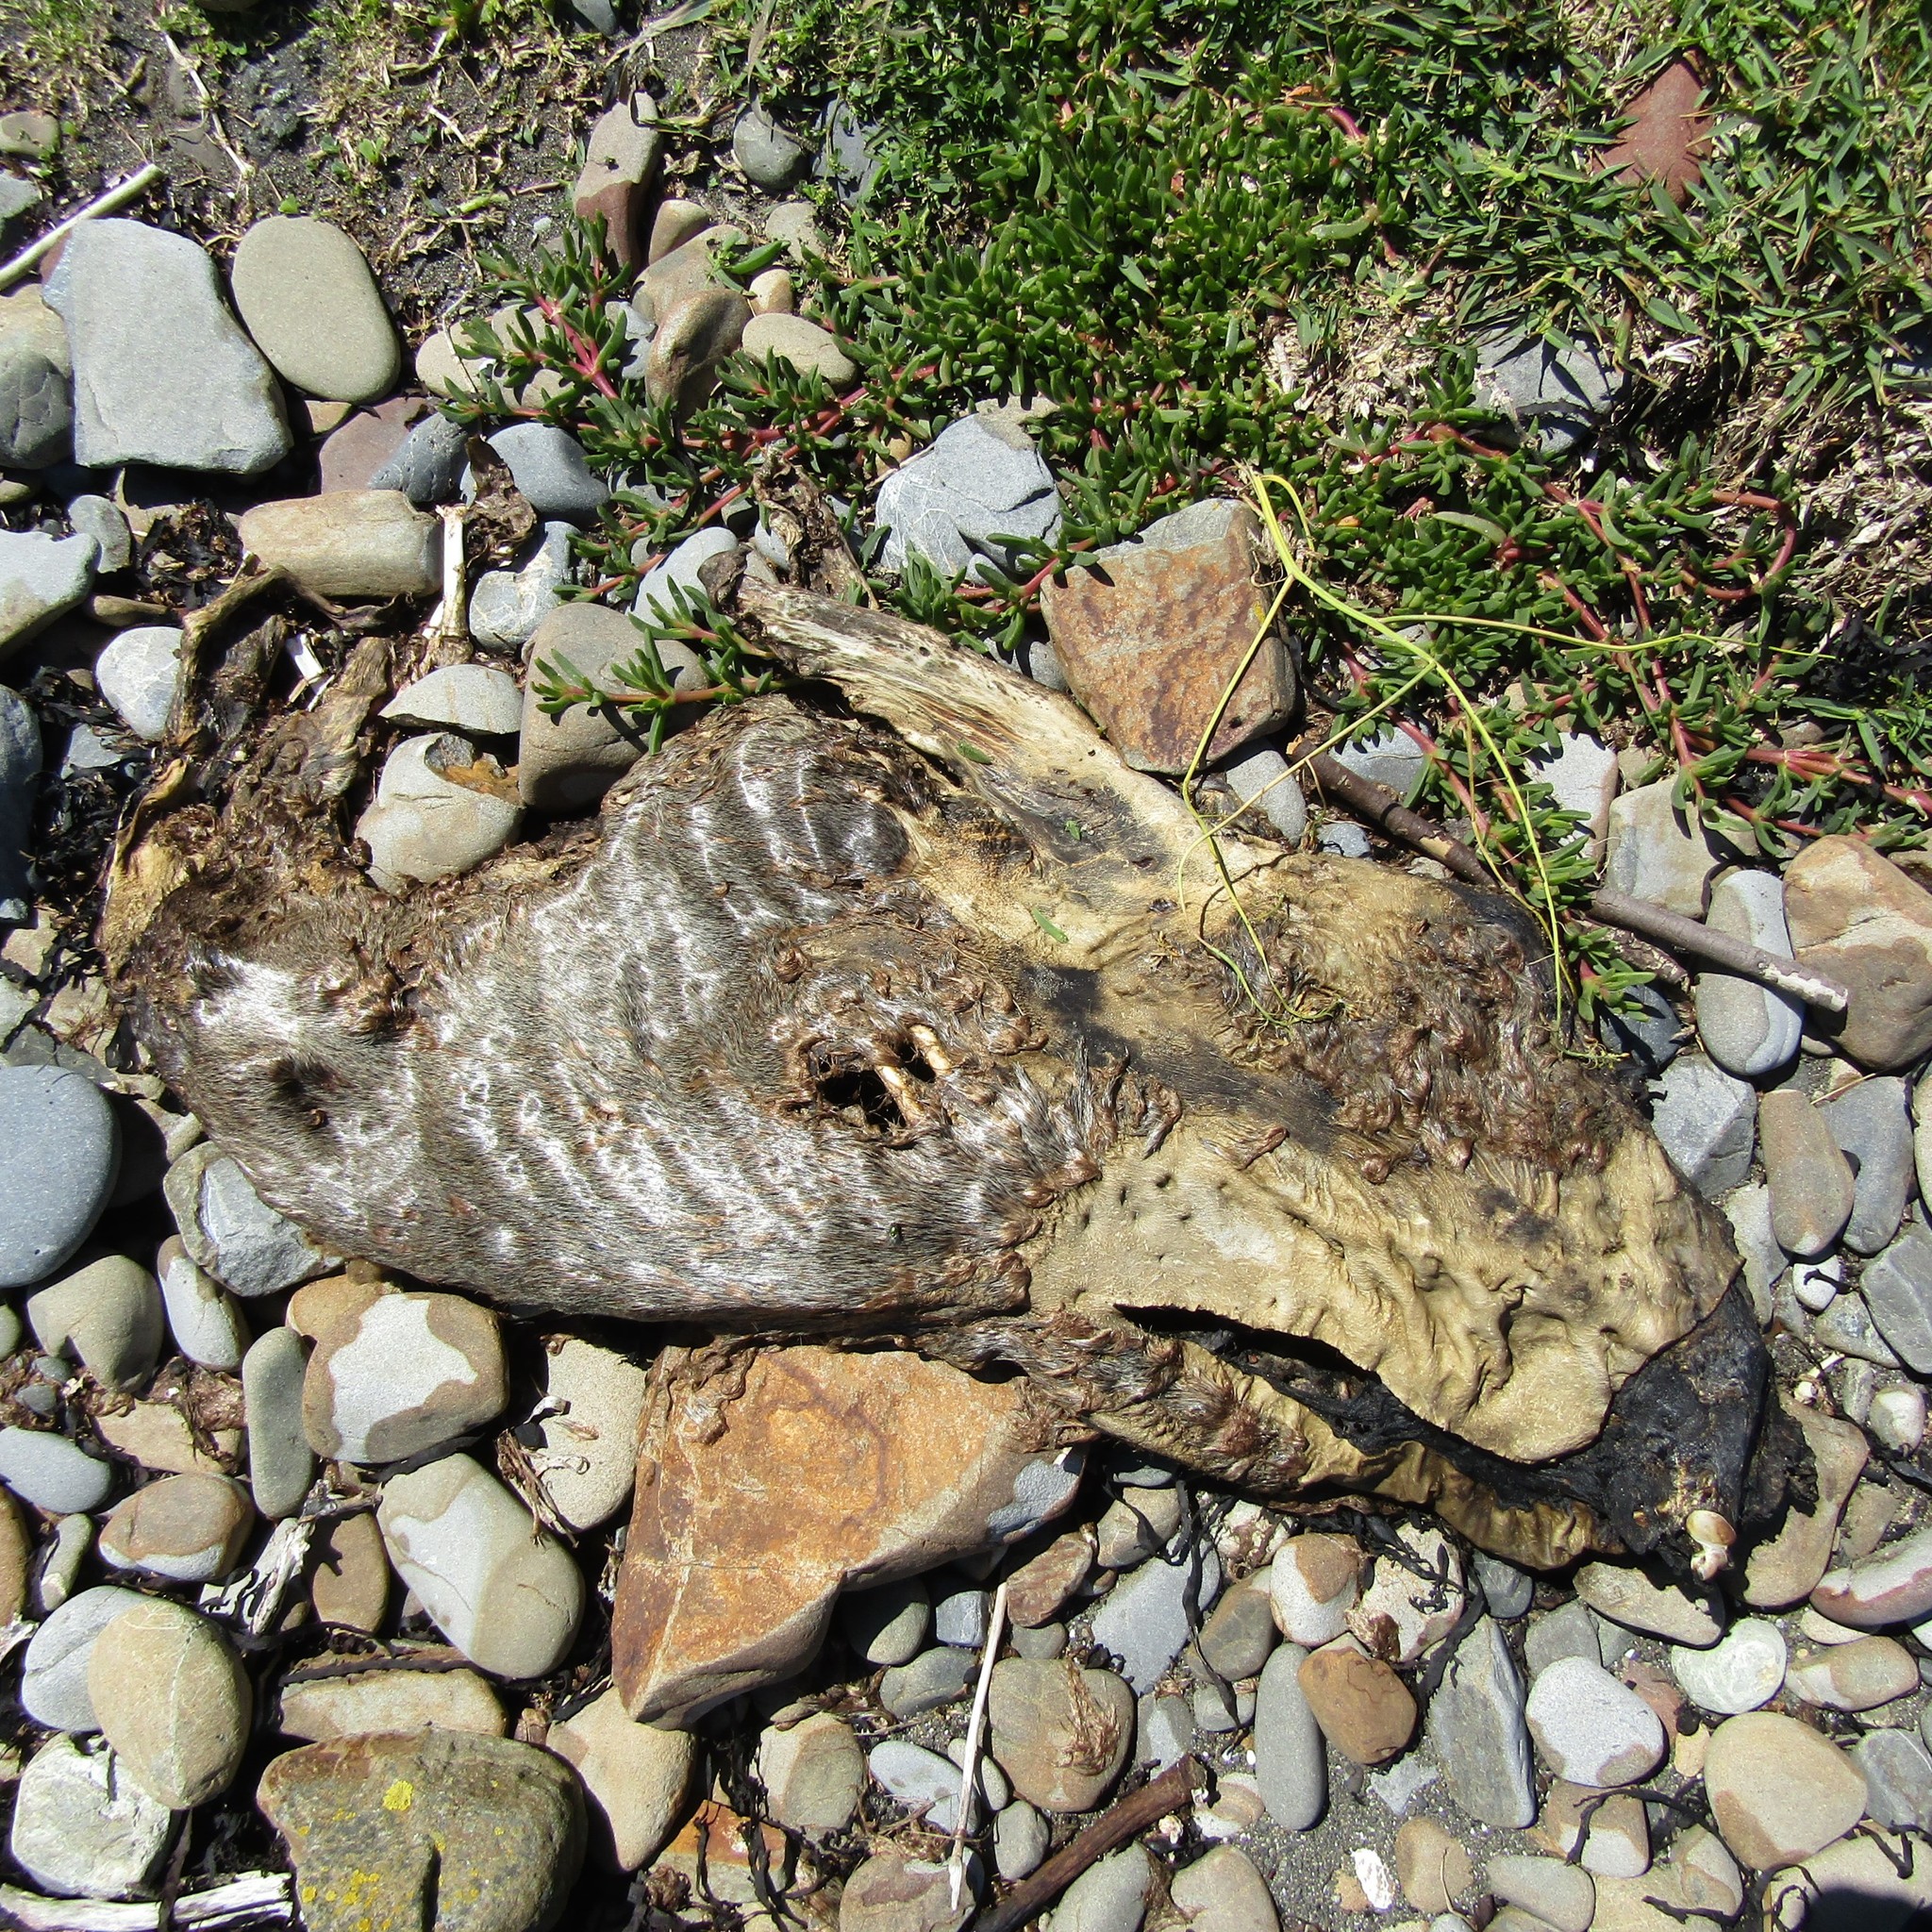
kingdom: Animalia
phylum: Chordata
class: Mammalia
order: Carnivora
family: Otariidae
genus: Arctocephalus
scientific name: Arctocephalus forsteri
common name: New zealand fur seal
